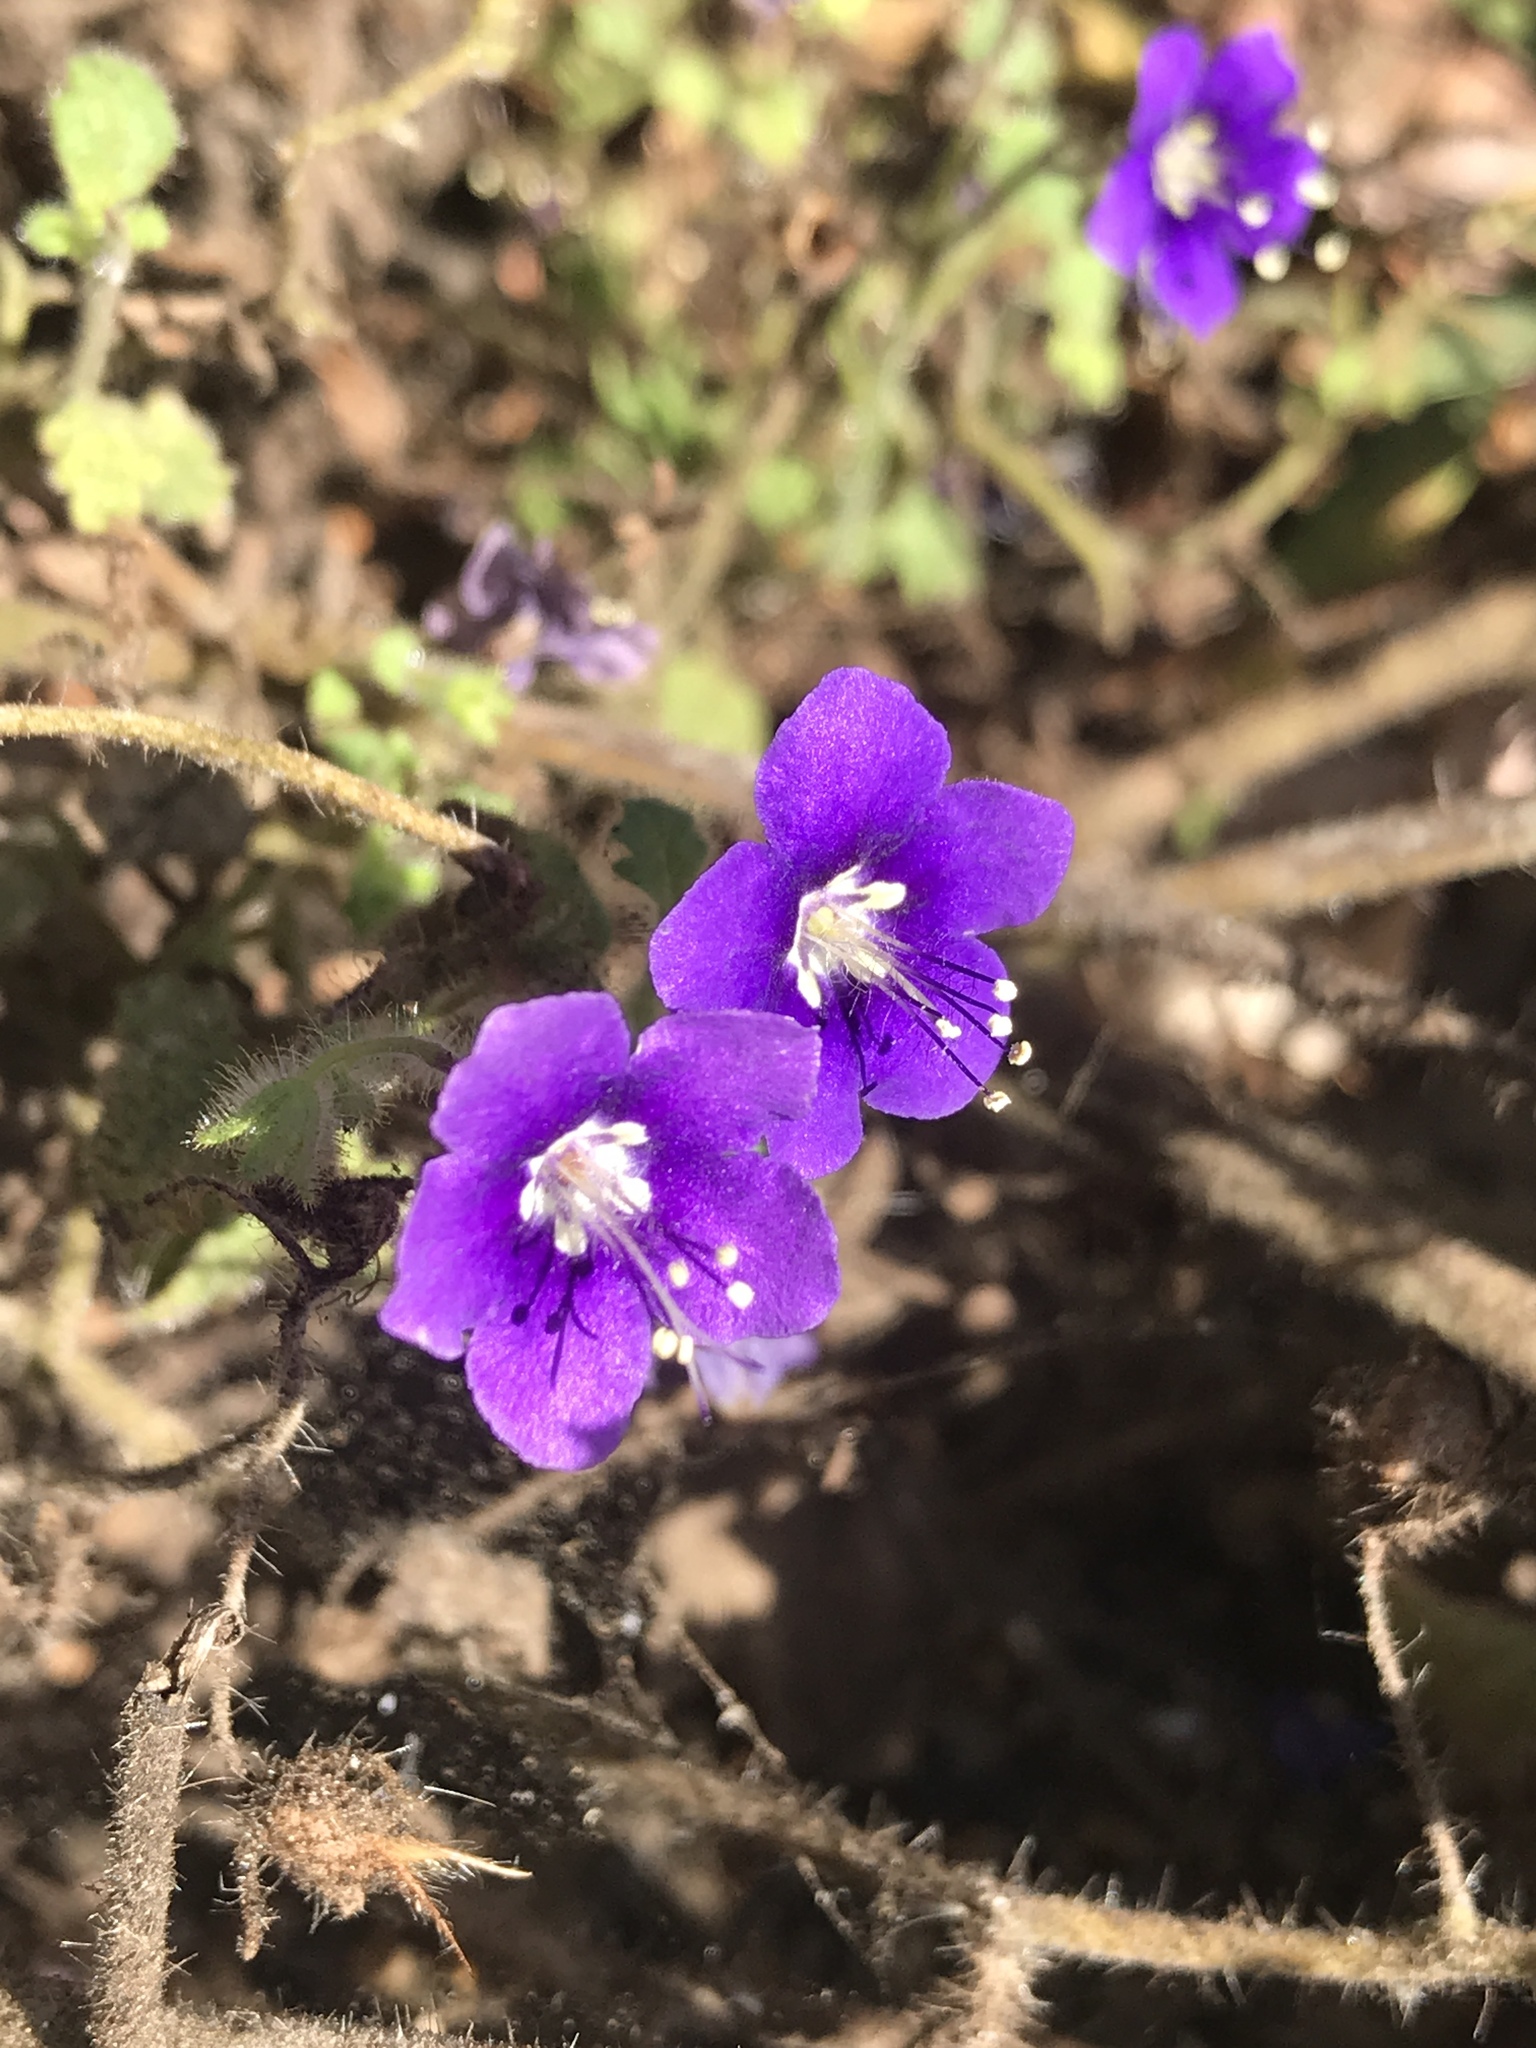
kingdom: Plantae
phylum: Tracheophyta
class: Magnoliopsida
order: Boraginales
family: Hydrophyllaceae
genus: Phacelia
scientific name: Phacelia parryi
